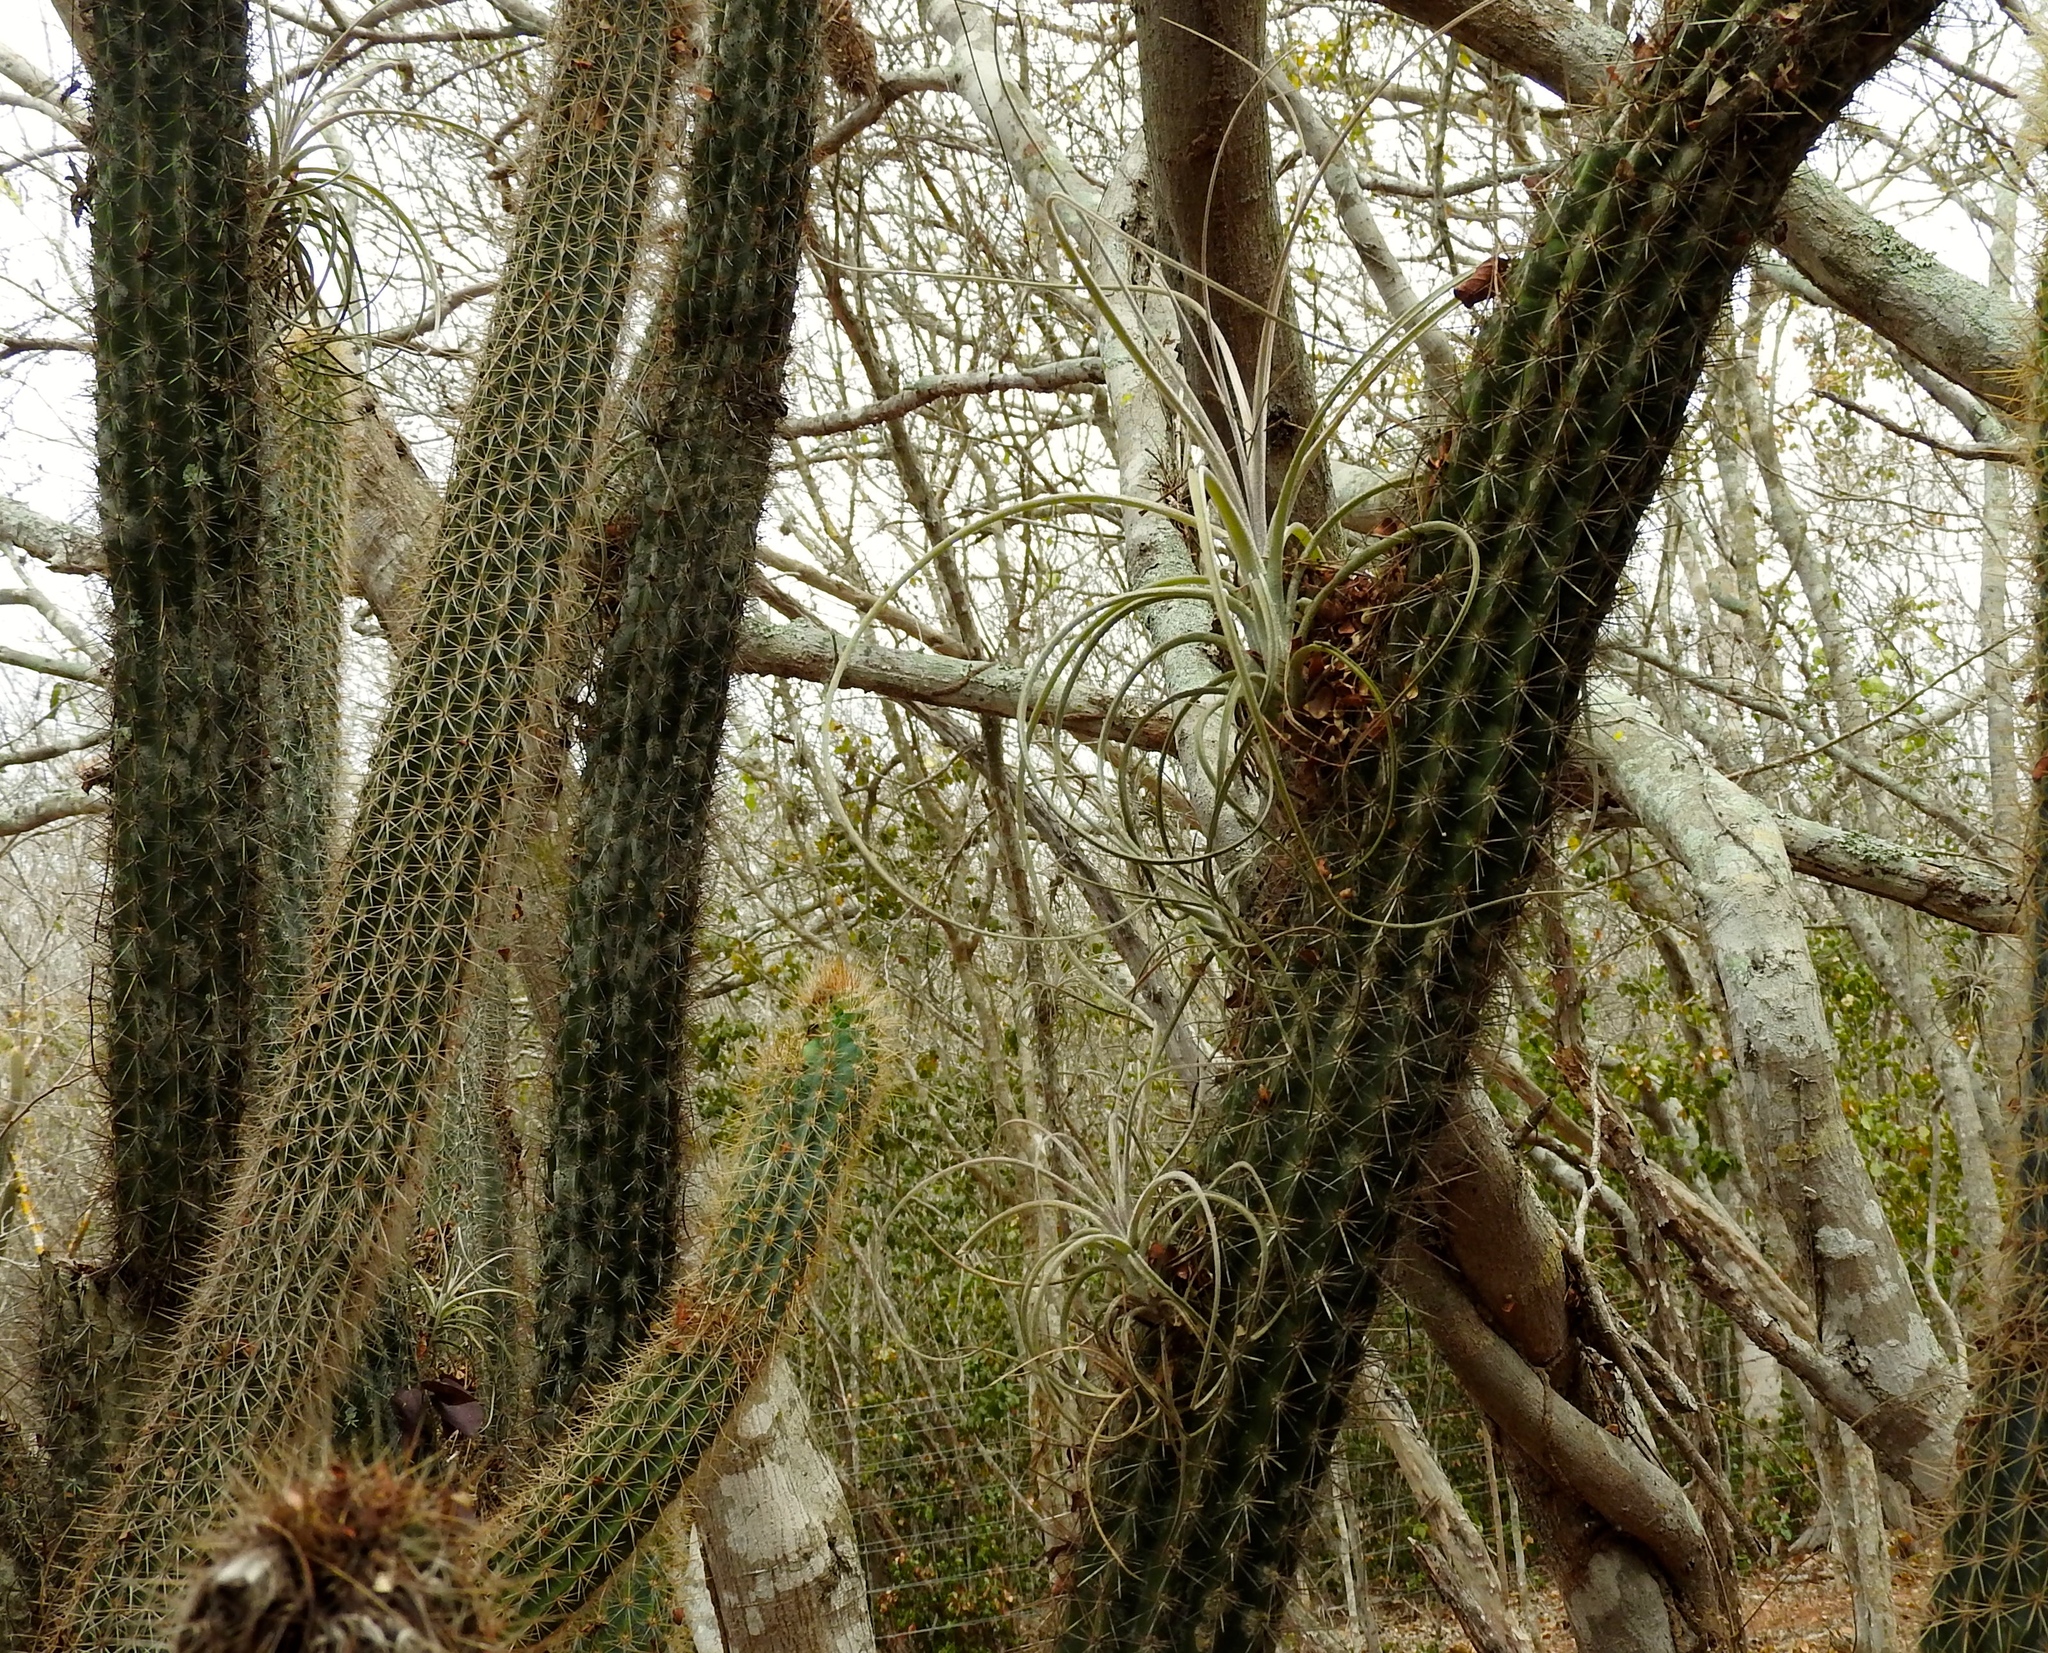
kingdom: Plantae
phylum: Tracheophyta
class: Liliopsida
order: Poales
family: Bromeliaceae
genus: Tillandsia
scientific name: Tillandsia exserta
